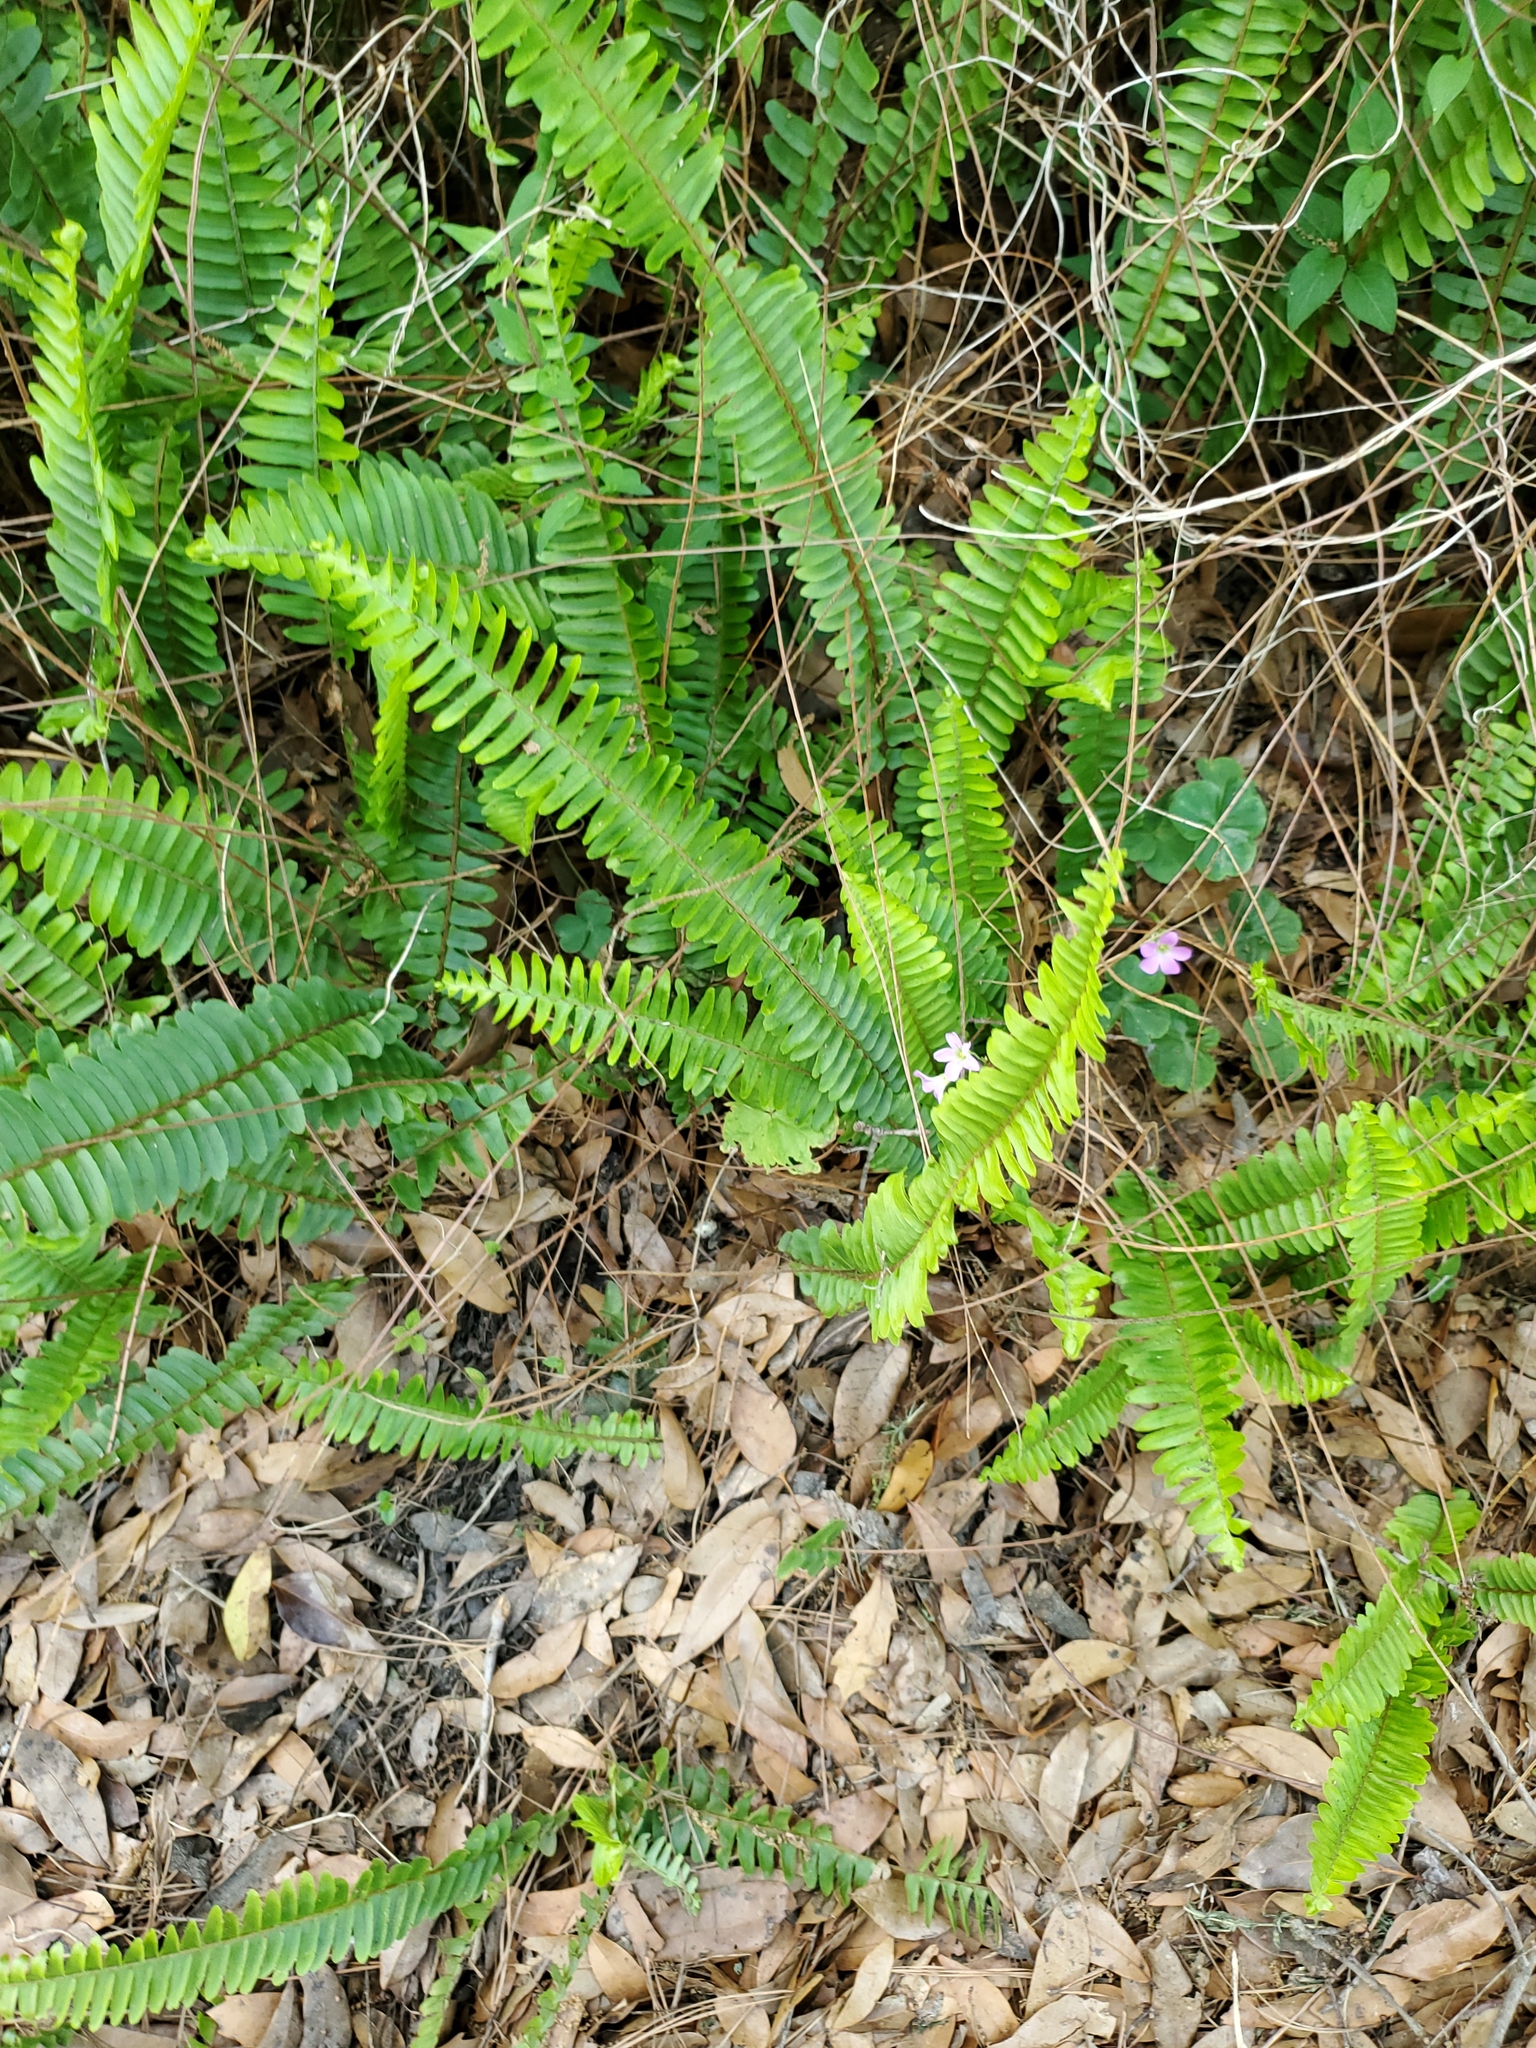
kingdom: Plantae
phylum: Tracheophyta
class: Polypodiopsida
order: Polypodiales
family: Nephrolepidaceae
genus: Nephrolepis
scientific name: Nephrolepis cordifolia
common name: Narrow swordfern
